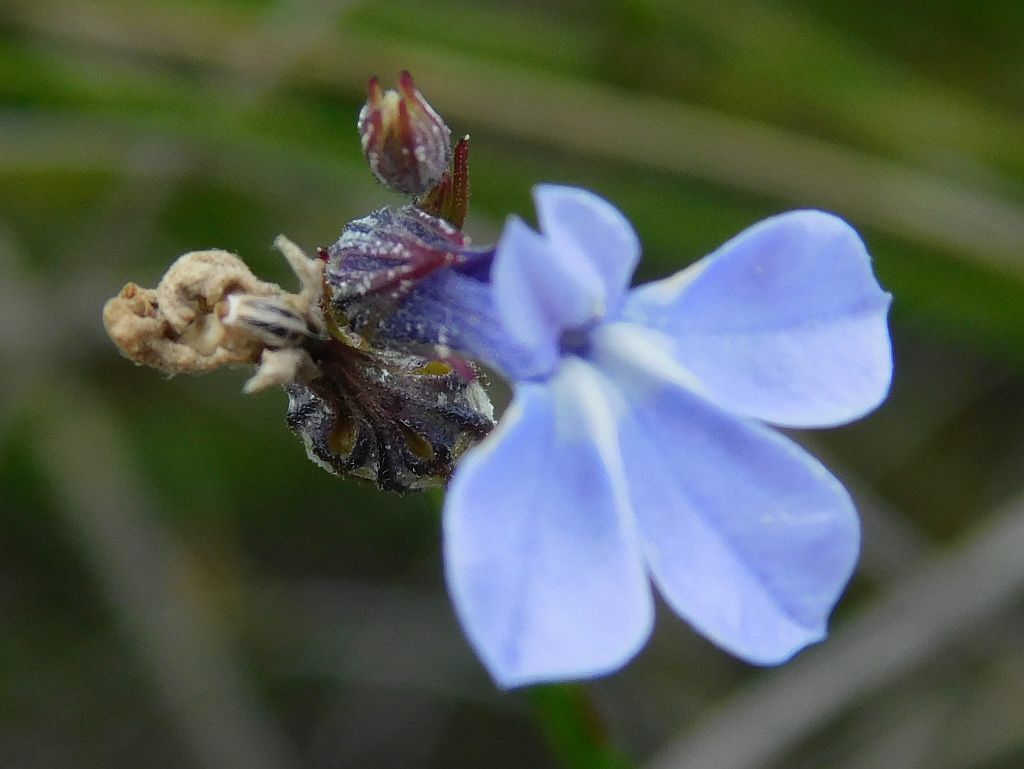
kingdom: Plantae
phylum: Tracheophyta
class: Magnoliopsida
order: Asterales
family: Campanulaceae
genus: Lobelia
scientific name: Lobelia capillifolia
